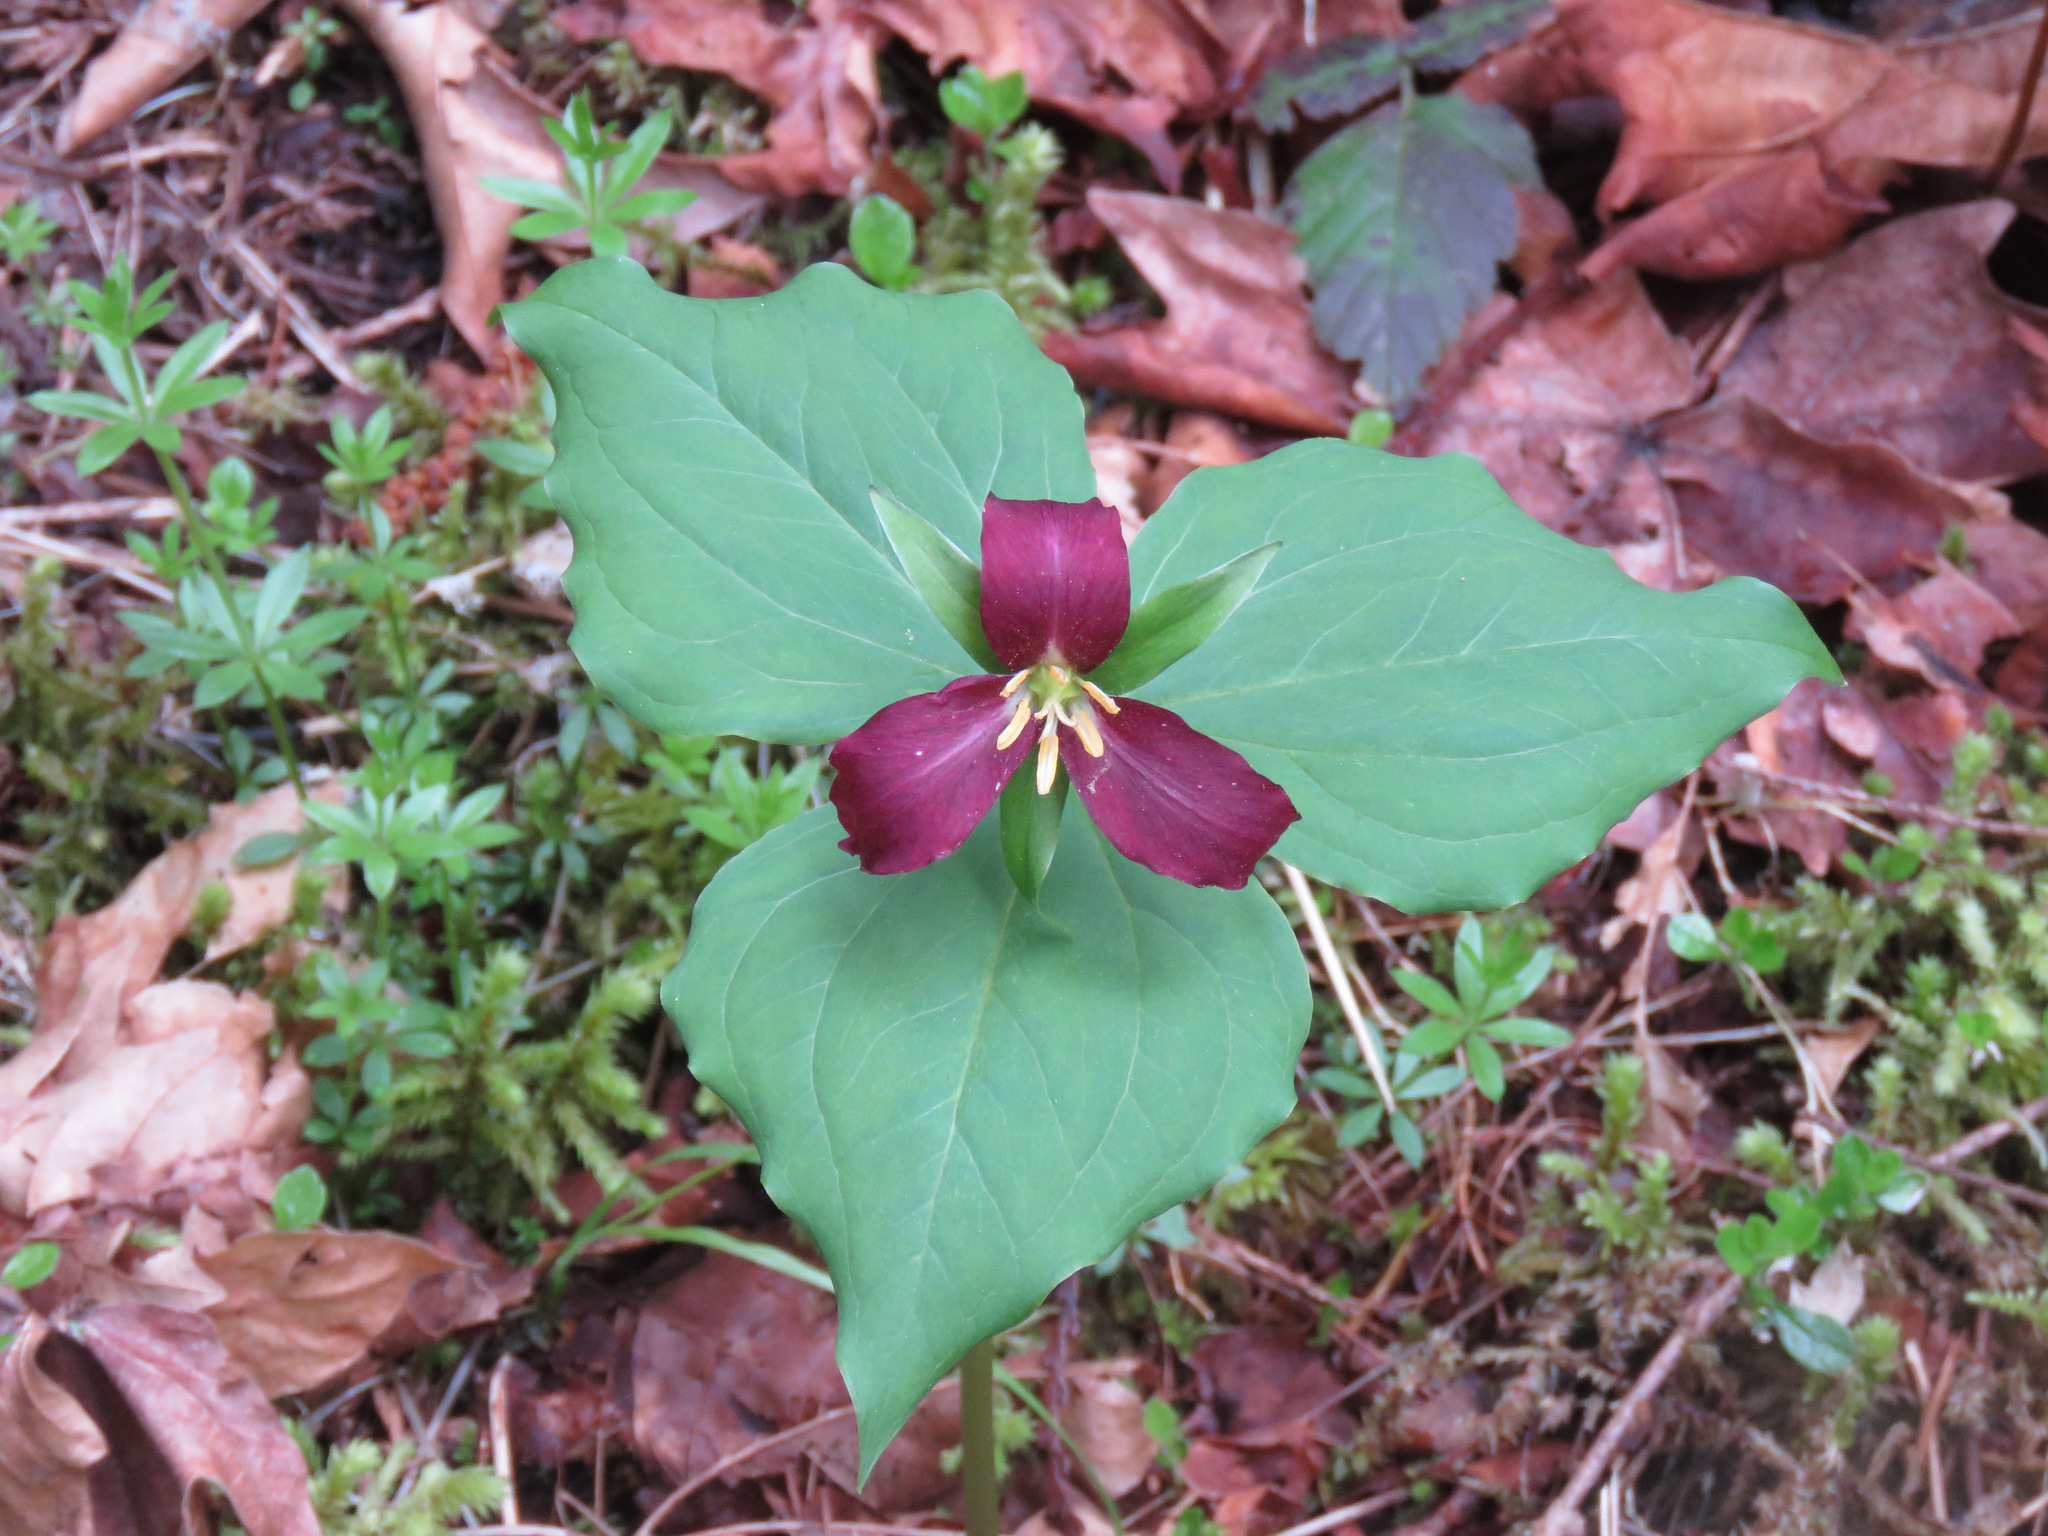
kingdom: Plantae
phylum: Tracheophyta
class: Liliopsida
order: Liliales
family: Melanthiaceae
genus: Trillium
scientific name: Trillium ovatum
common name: Pacific trillium
